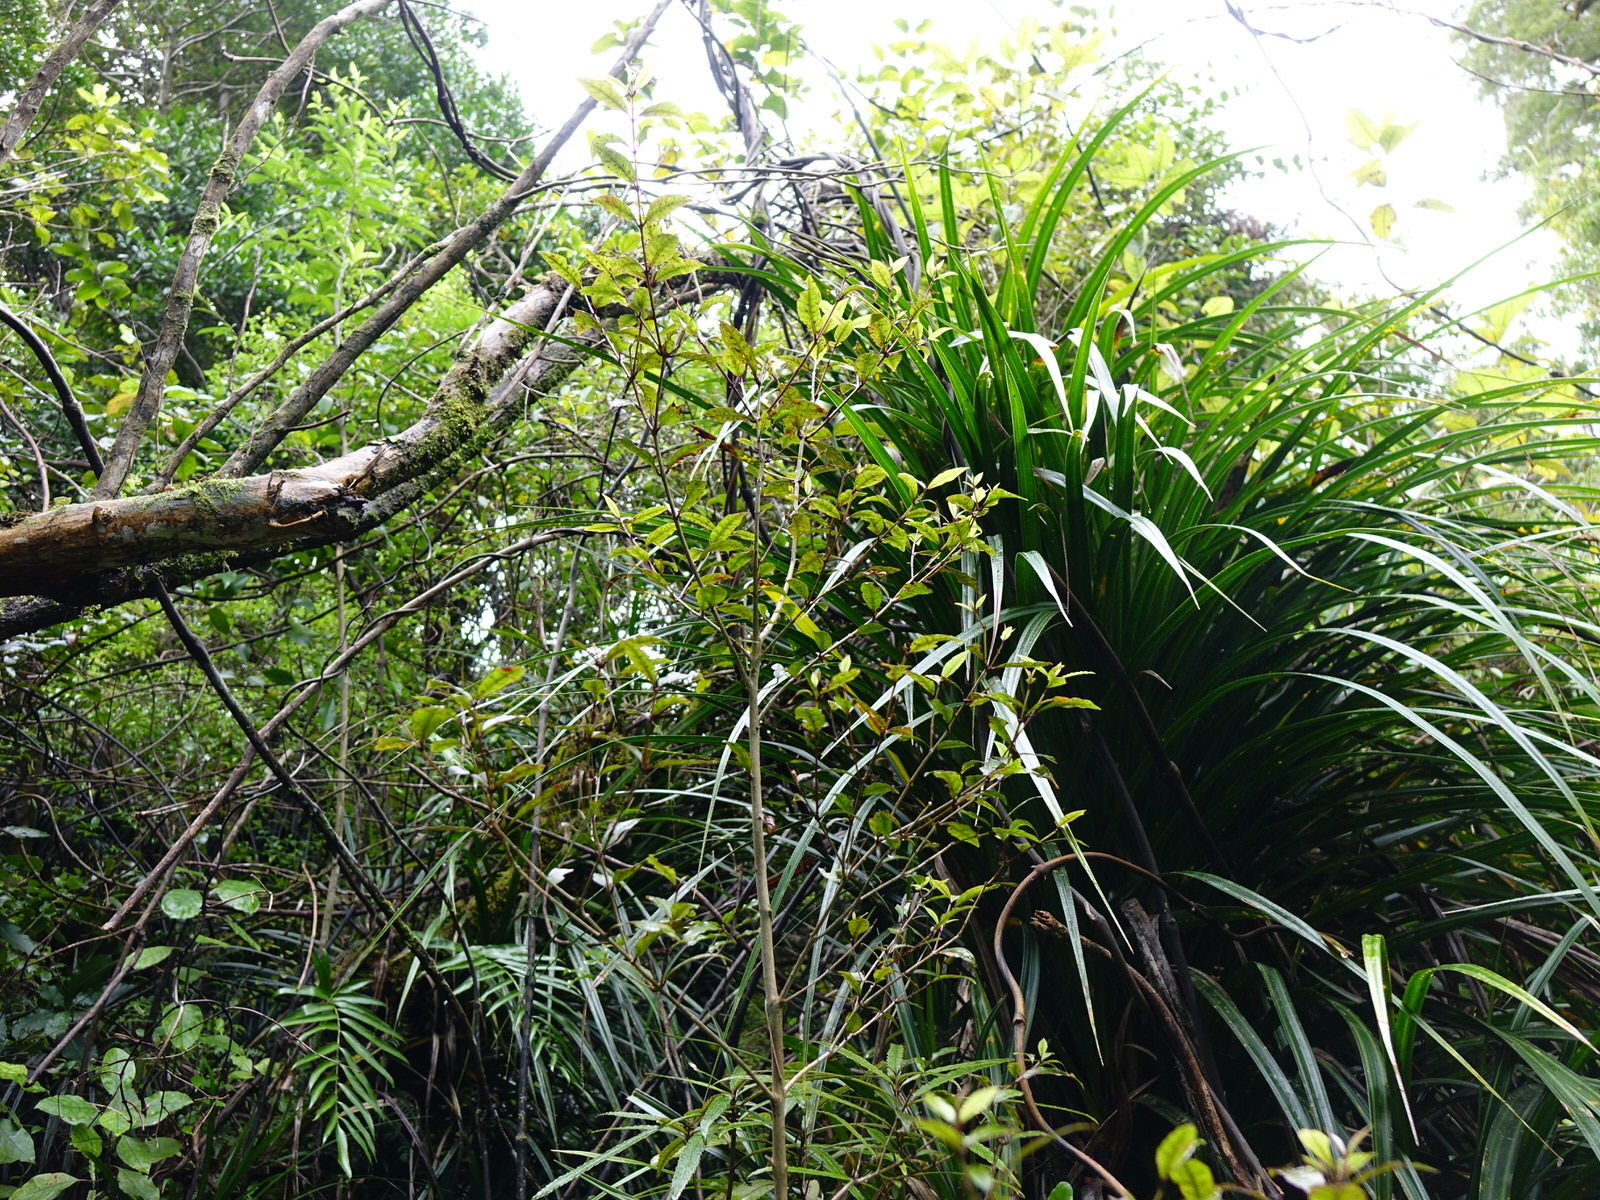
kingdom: Plantae
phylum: Tracheophyta
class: Magnoliopsida
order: Myrtales
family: Myrtaceae
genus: Syzygium
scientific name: Syzygium maire
